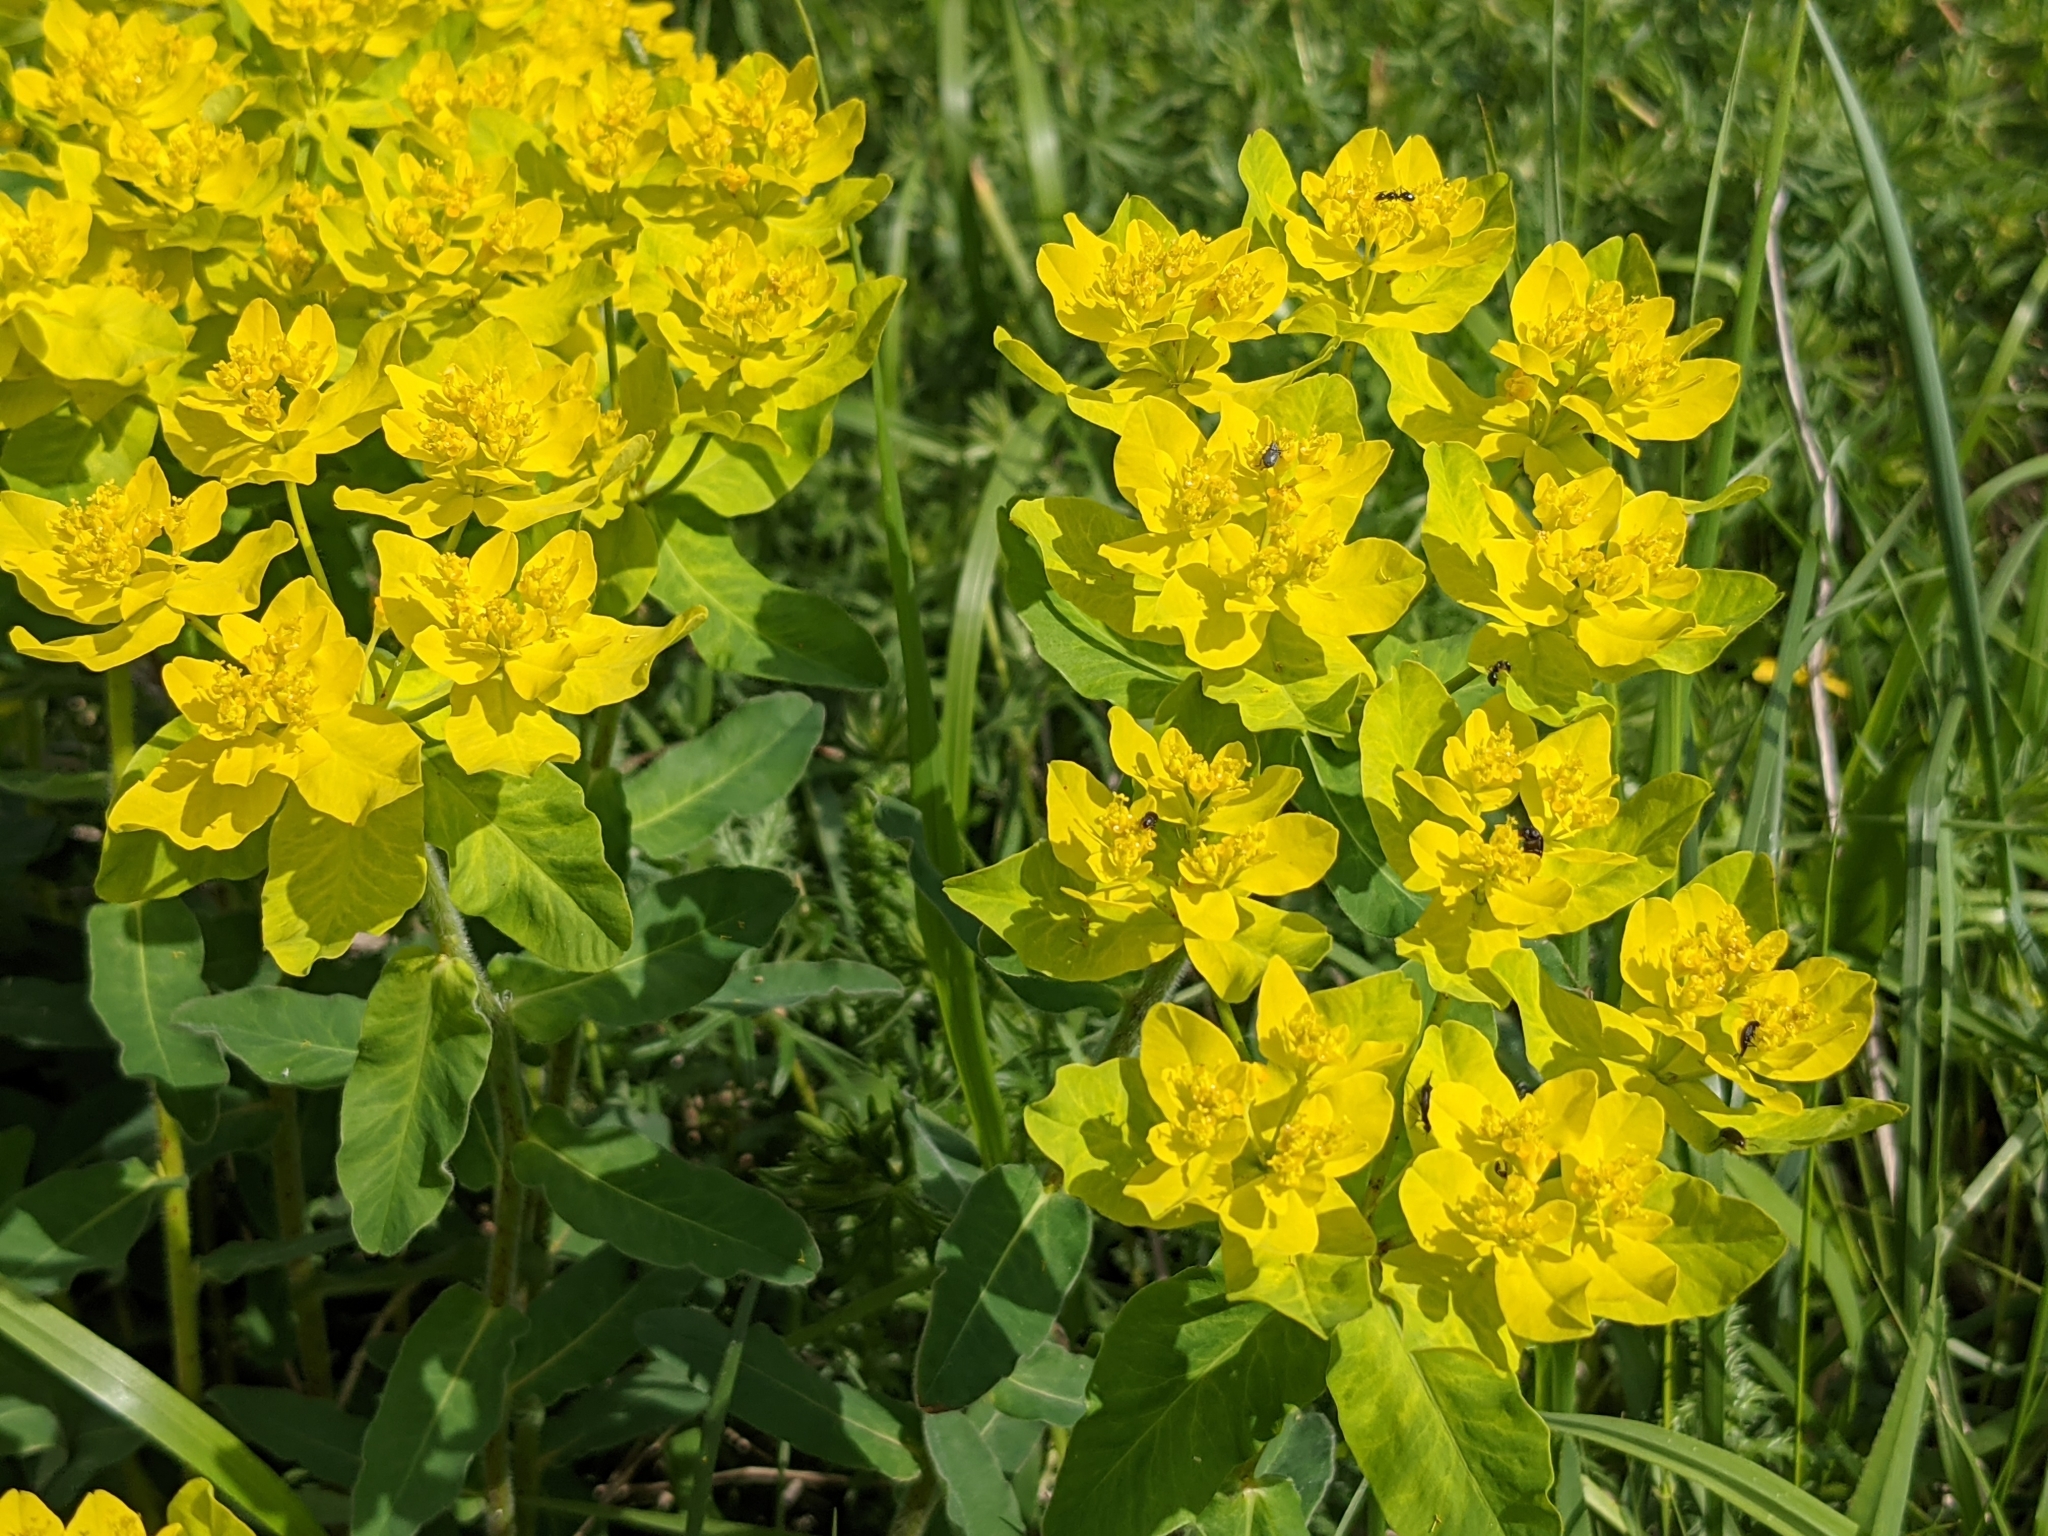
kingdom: Plantae
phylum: Tracheophyta
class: Magnoliopsida
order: Malpighiales
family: Euphorbiaceae
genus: Euphorbia
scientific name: Euphorbia epithymoides
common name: Cushion spurge
